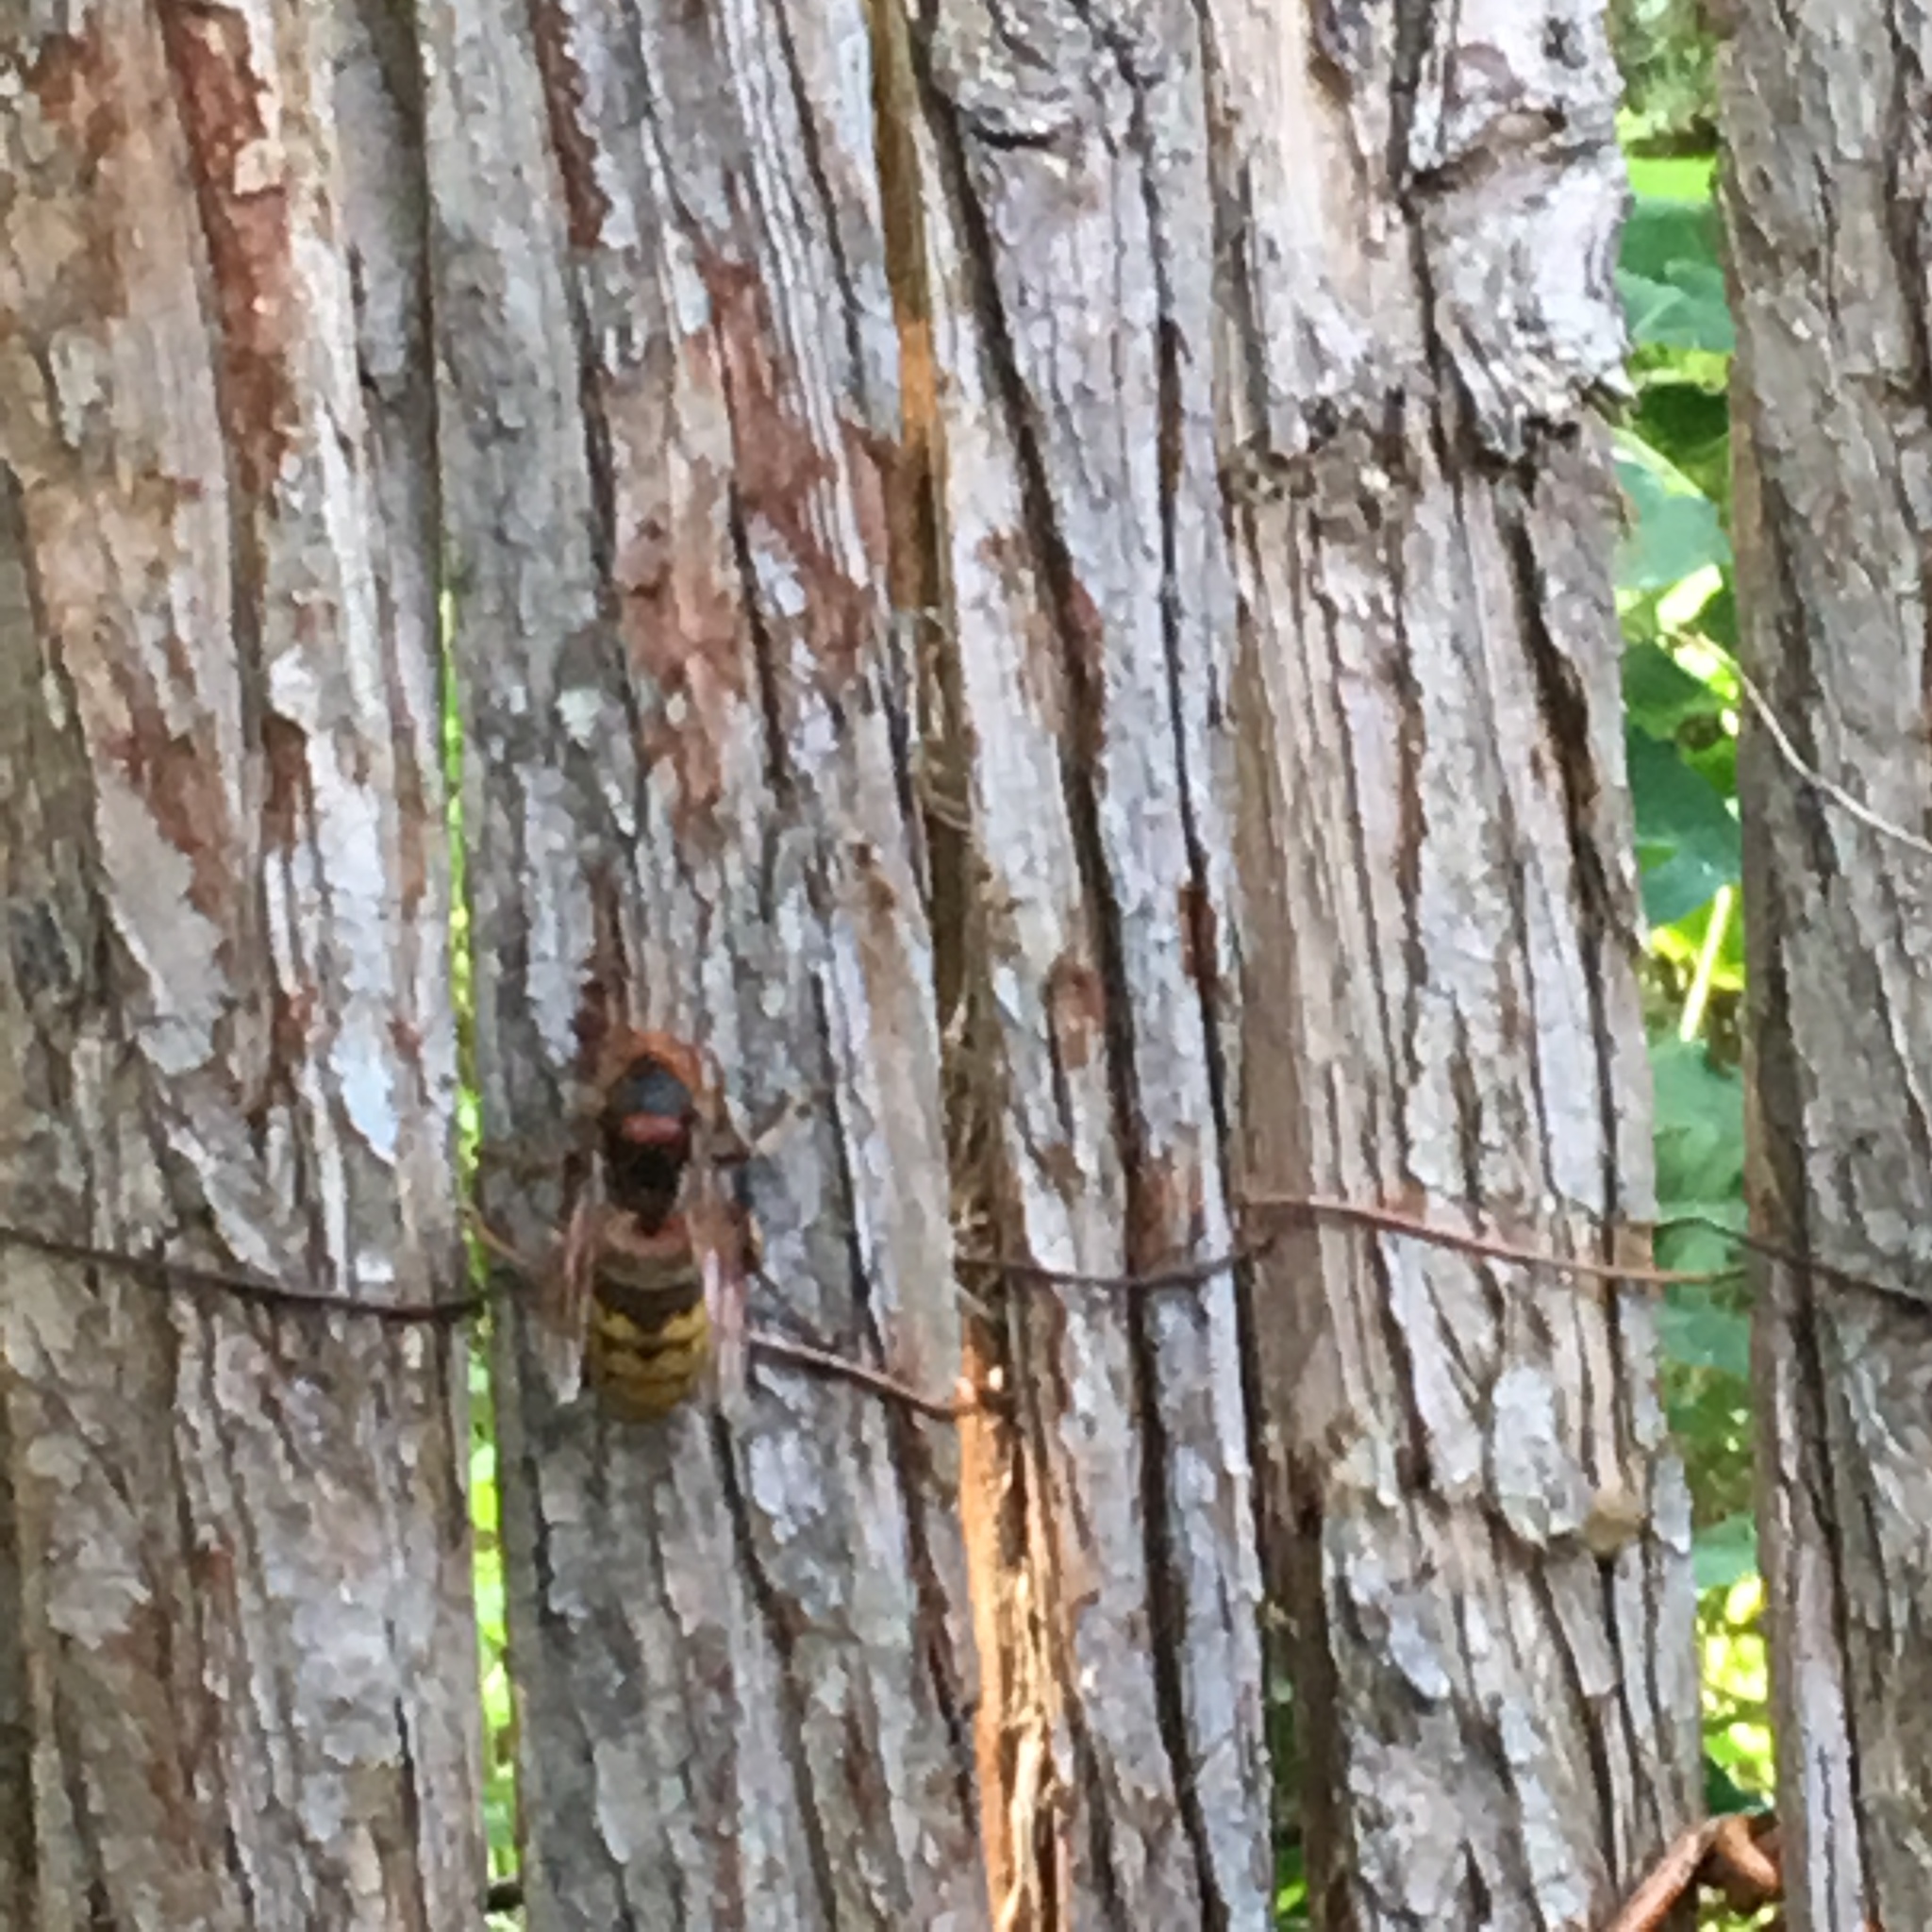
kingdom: Animalia
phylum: Arthropoda
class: Insecta
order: Hymenoptera
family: Vespidae
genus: Vespa
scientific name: Vespa crabro
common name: Hornet
